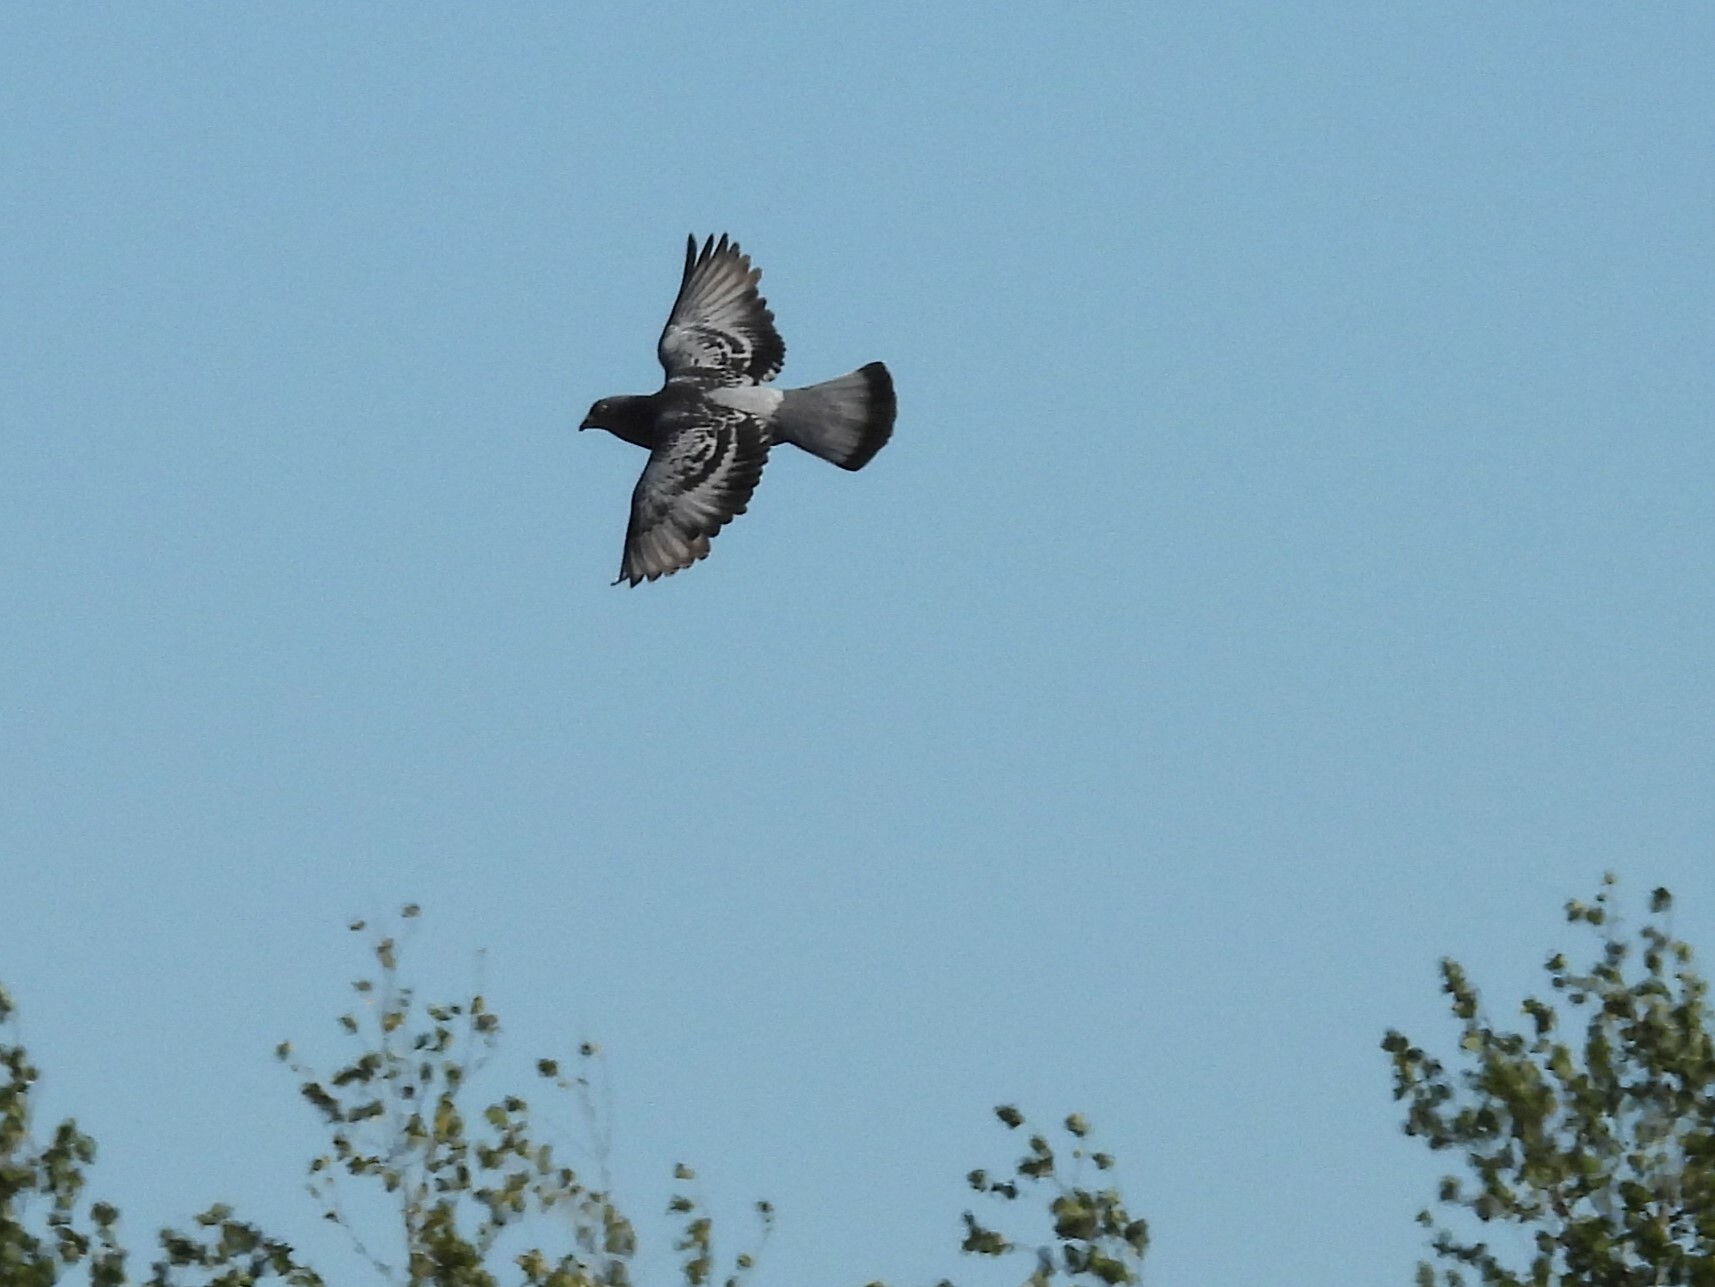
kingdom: Animalia
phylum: Chordata
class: Aves
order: Columbiformes
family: Columbidae
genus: Columba
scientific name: Columba livia
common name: Rock pigeon
